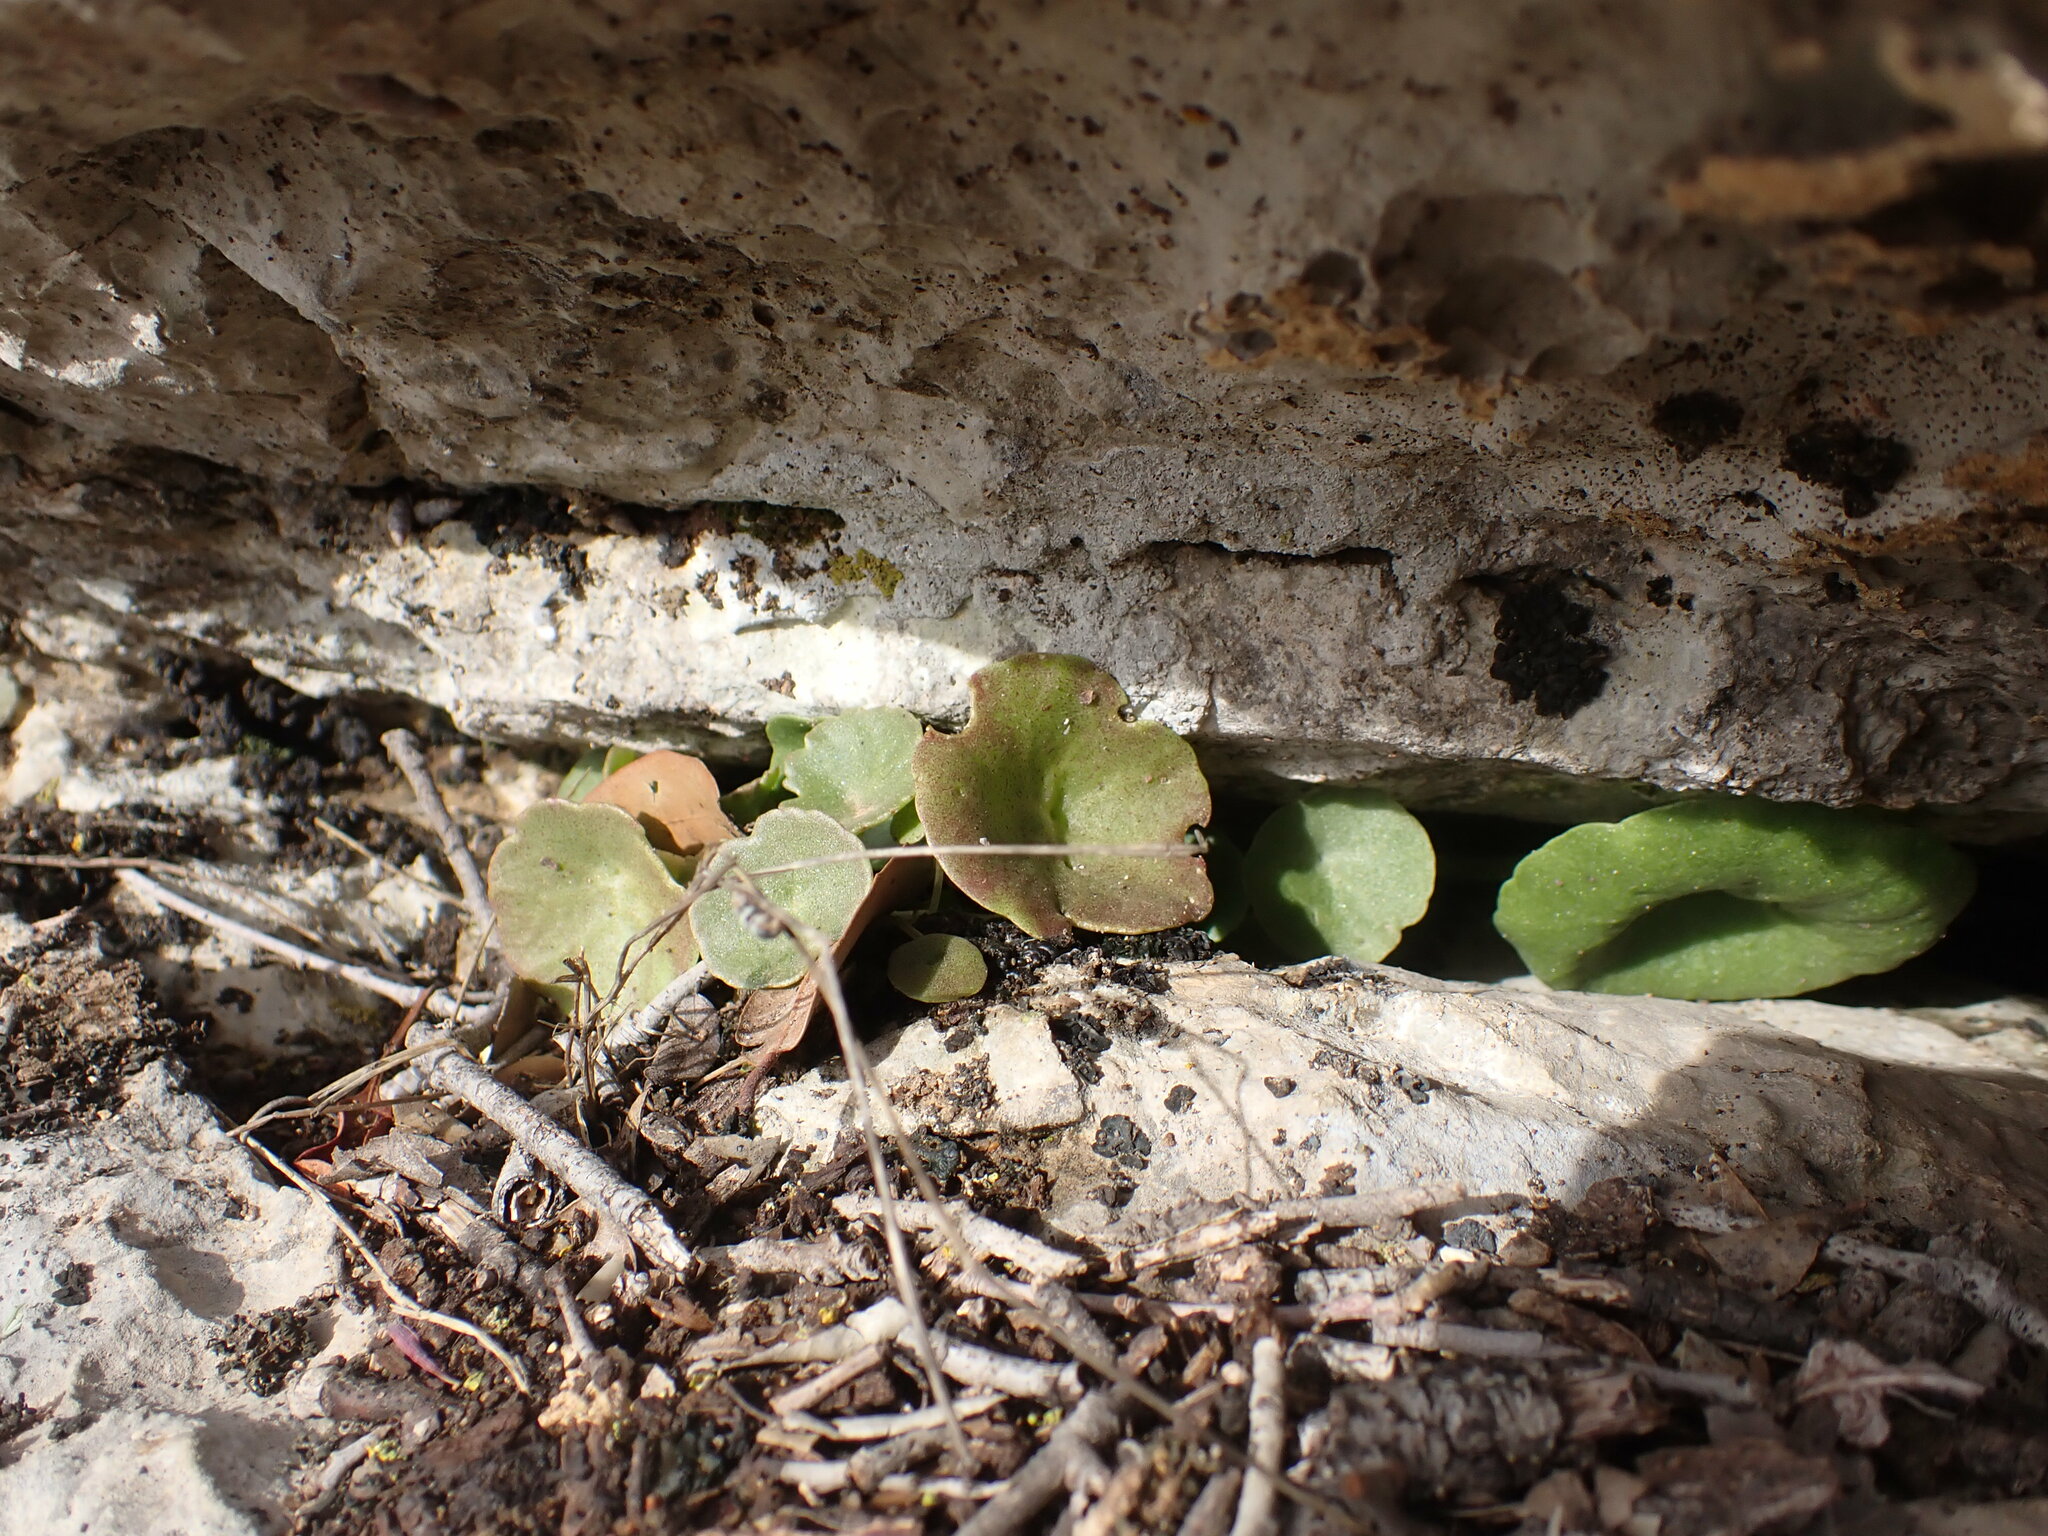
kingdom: Plantae
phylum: Tracheophyta
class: Magnoliopsida
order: Saxifragales
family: Crassulaceae
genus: Umbilicus
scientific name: Umbilicus rupestris
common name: Navelwort
